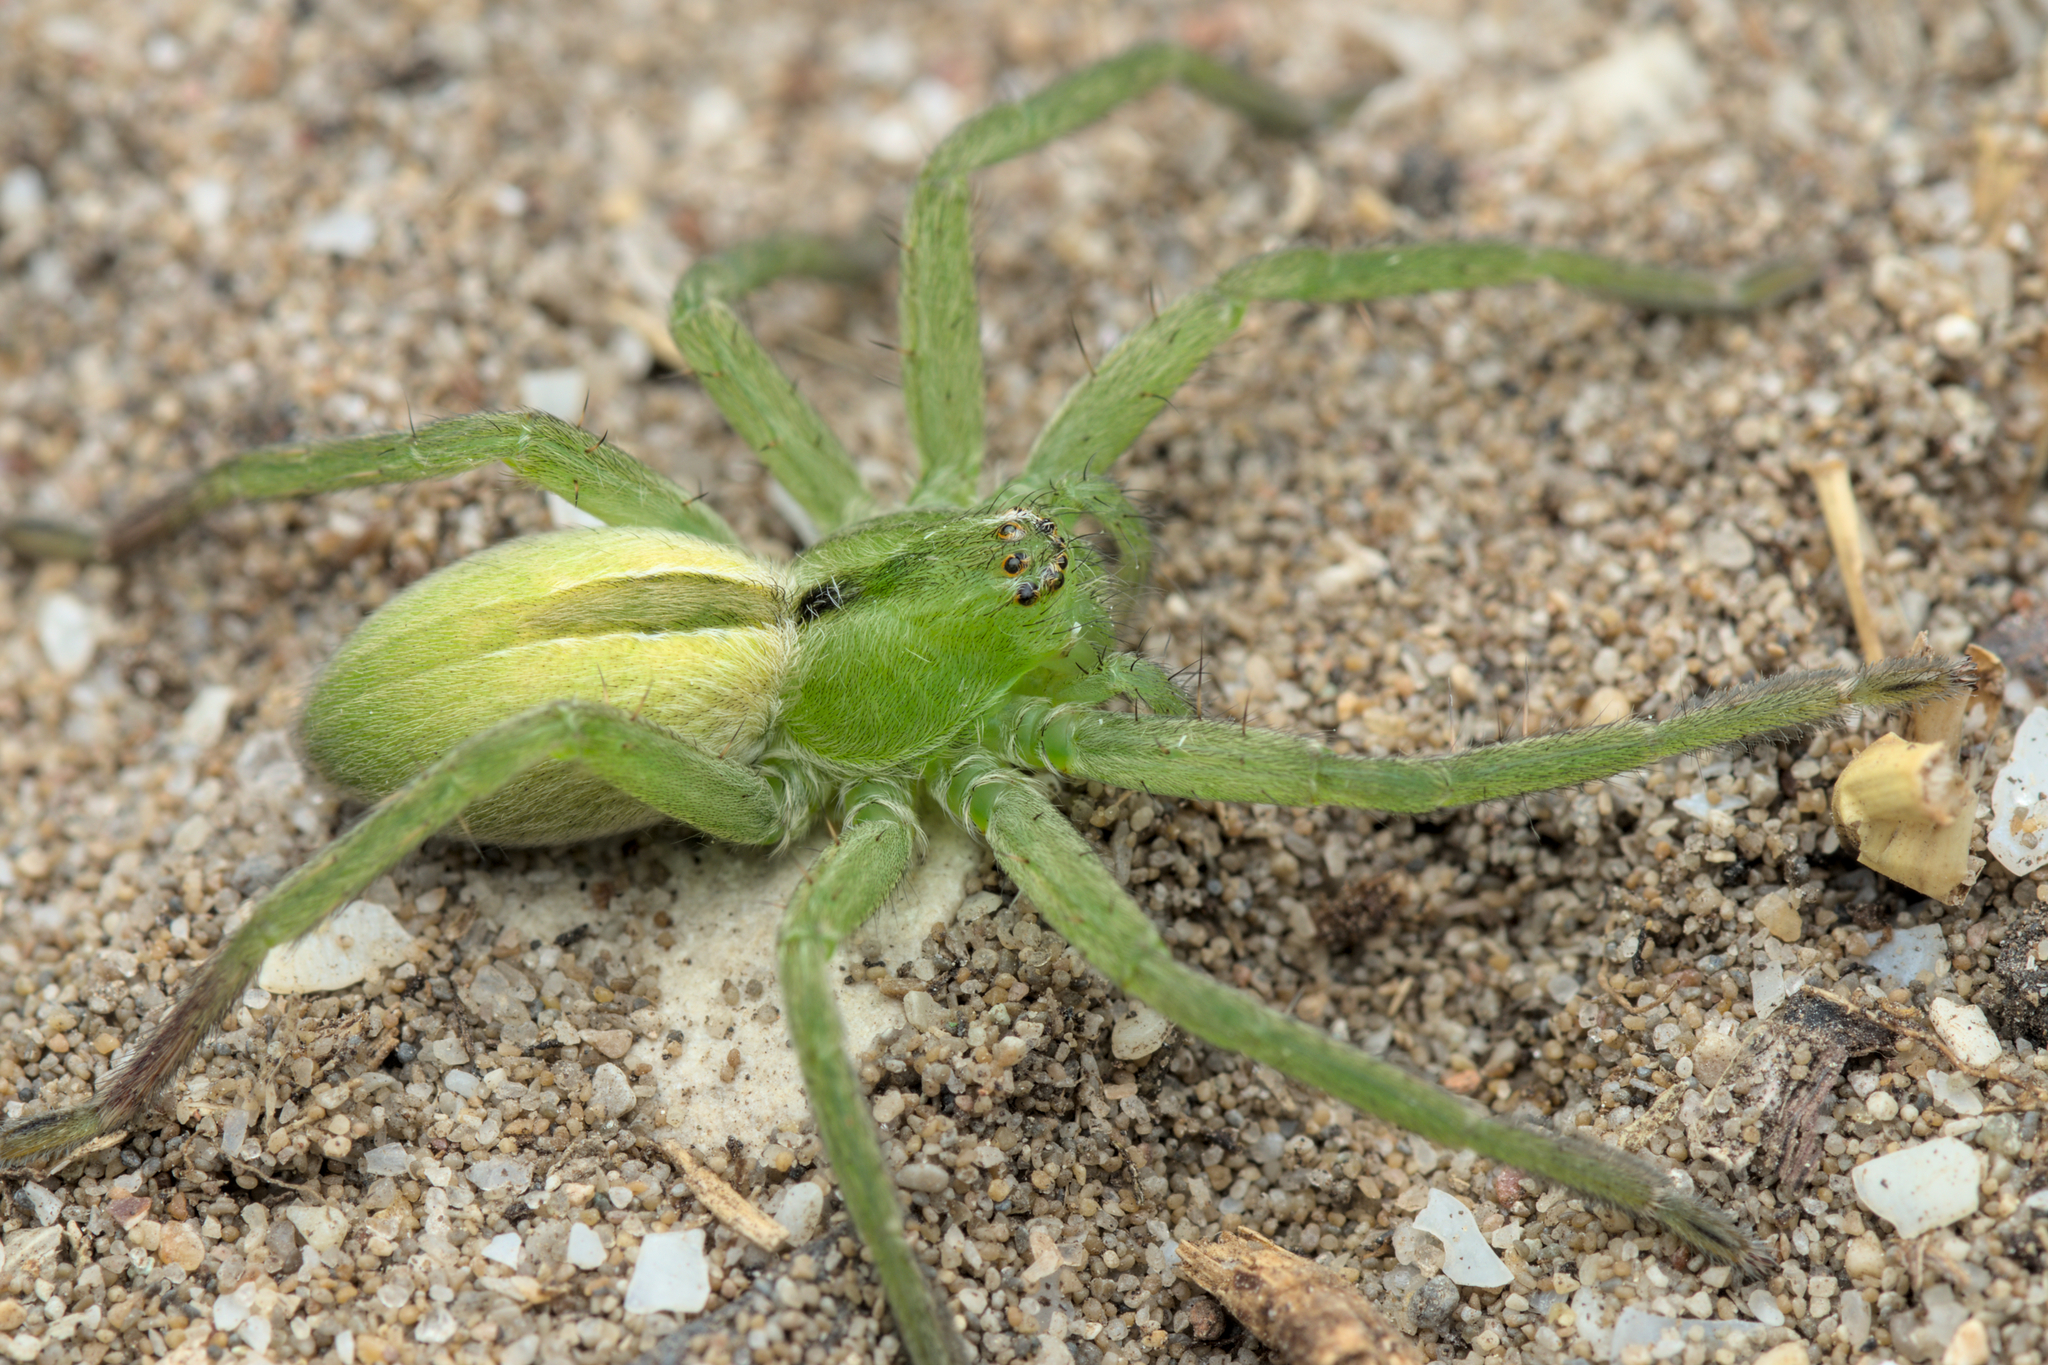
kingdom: Animalia
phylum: Arthropoda
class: Arachnida
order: Araneae
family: Sparassidae
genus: Micrommata
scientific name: Micrommata ligurina
